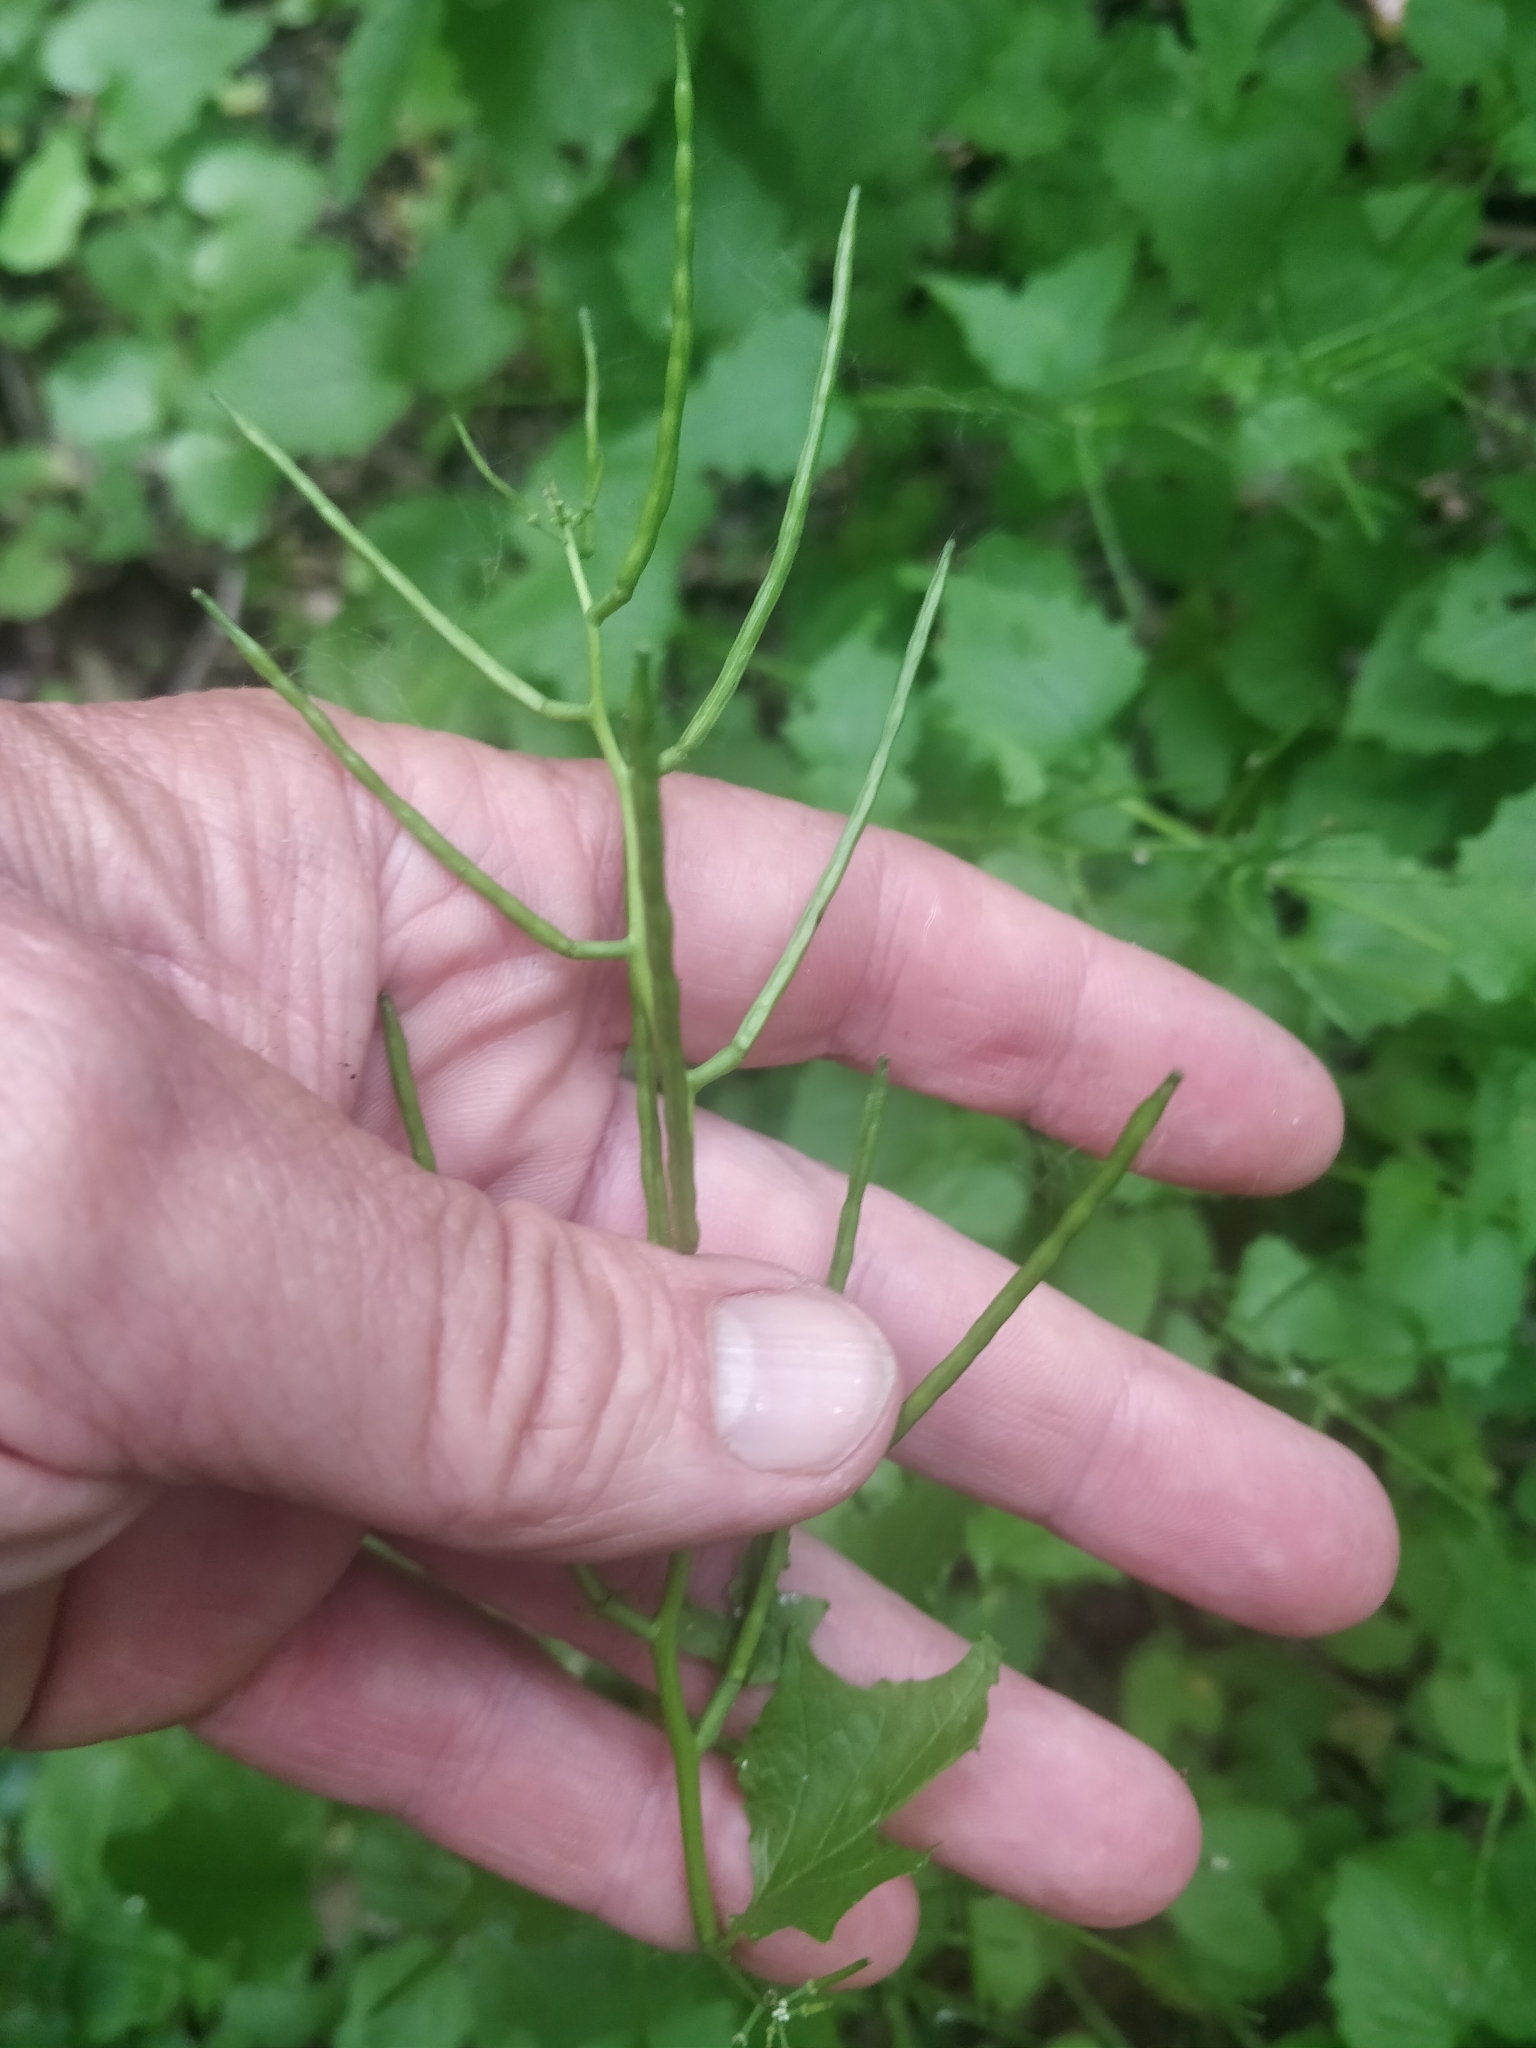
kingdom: Plantae
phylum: Tracheophyta
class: Magnoliopsida
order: Brassicales
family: Brassicaceae
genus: Alliaria
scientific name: Alliaria petiolata
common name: Garlic mustard
